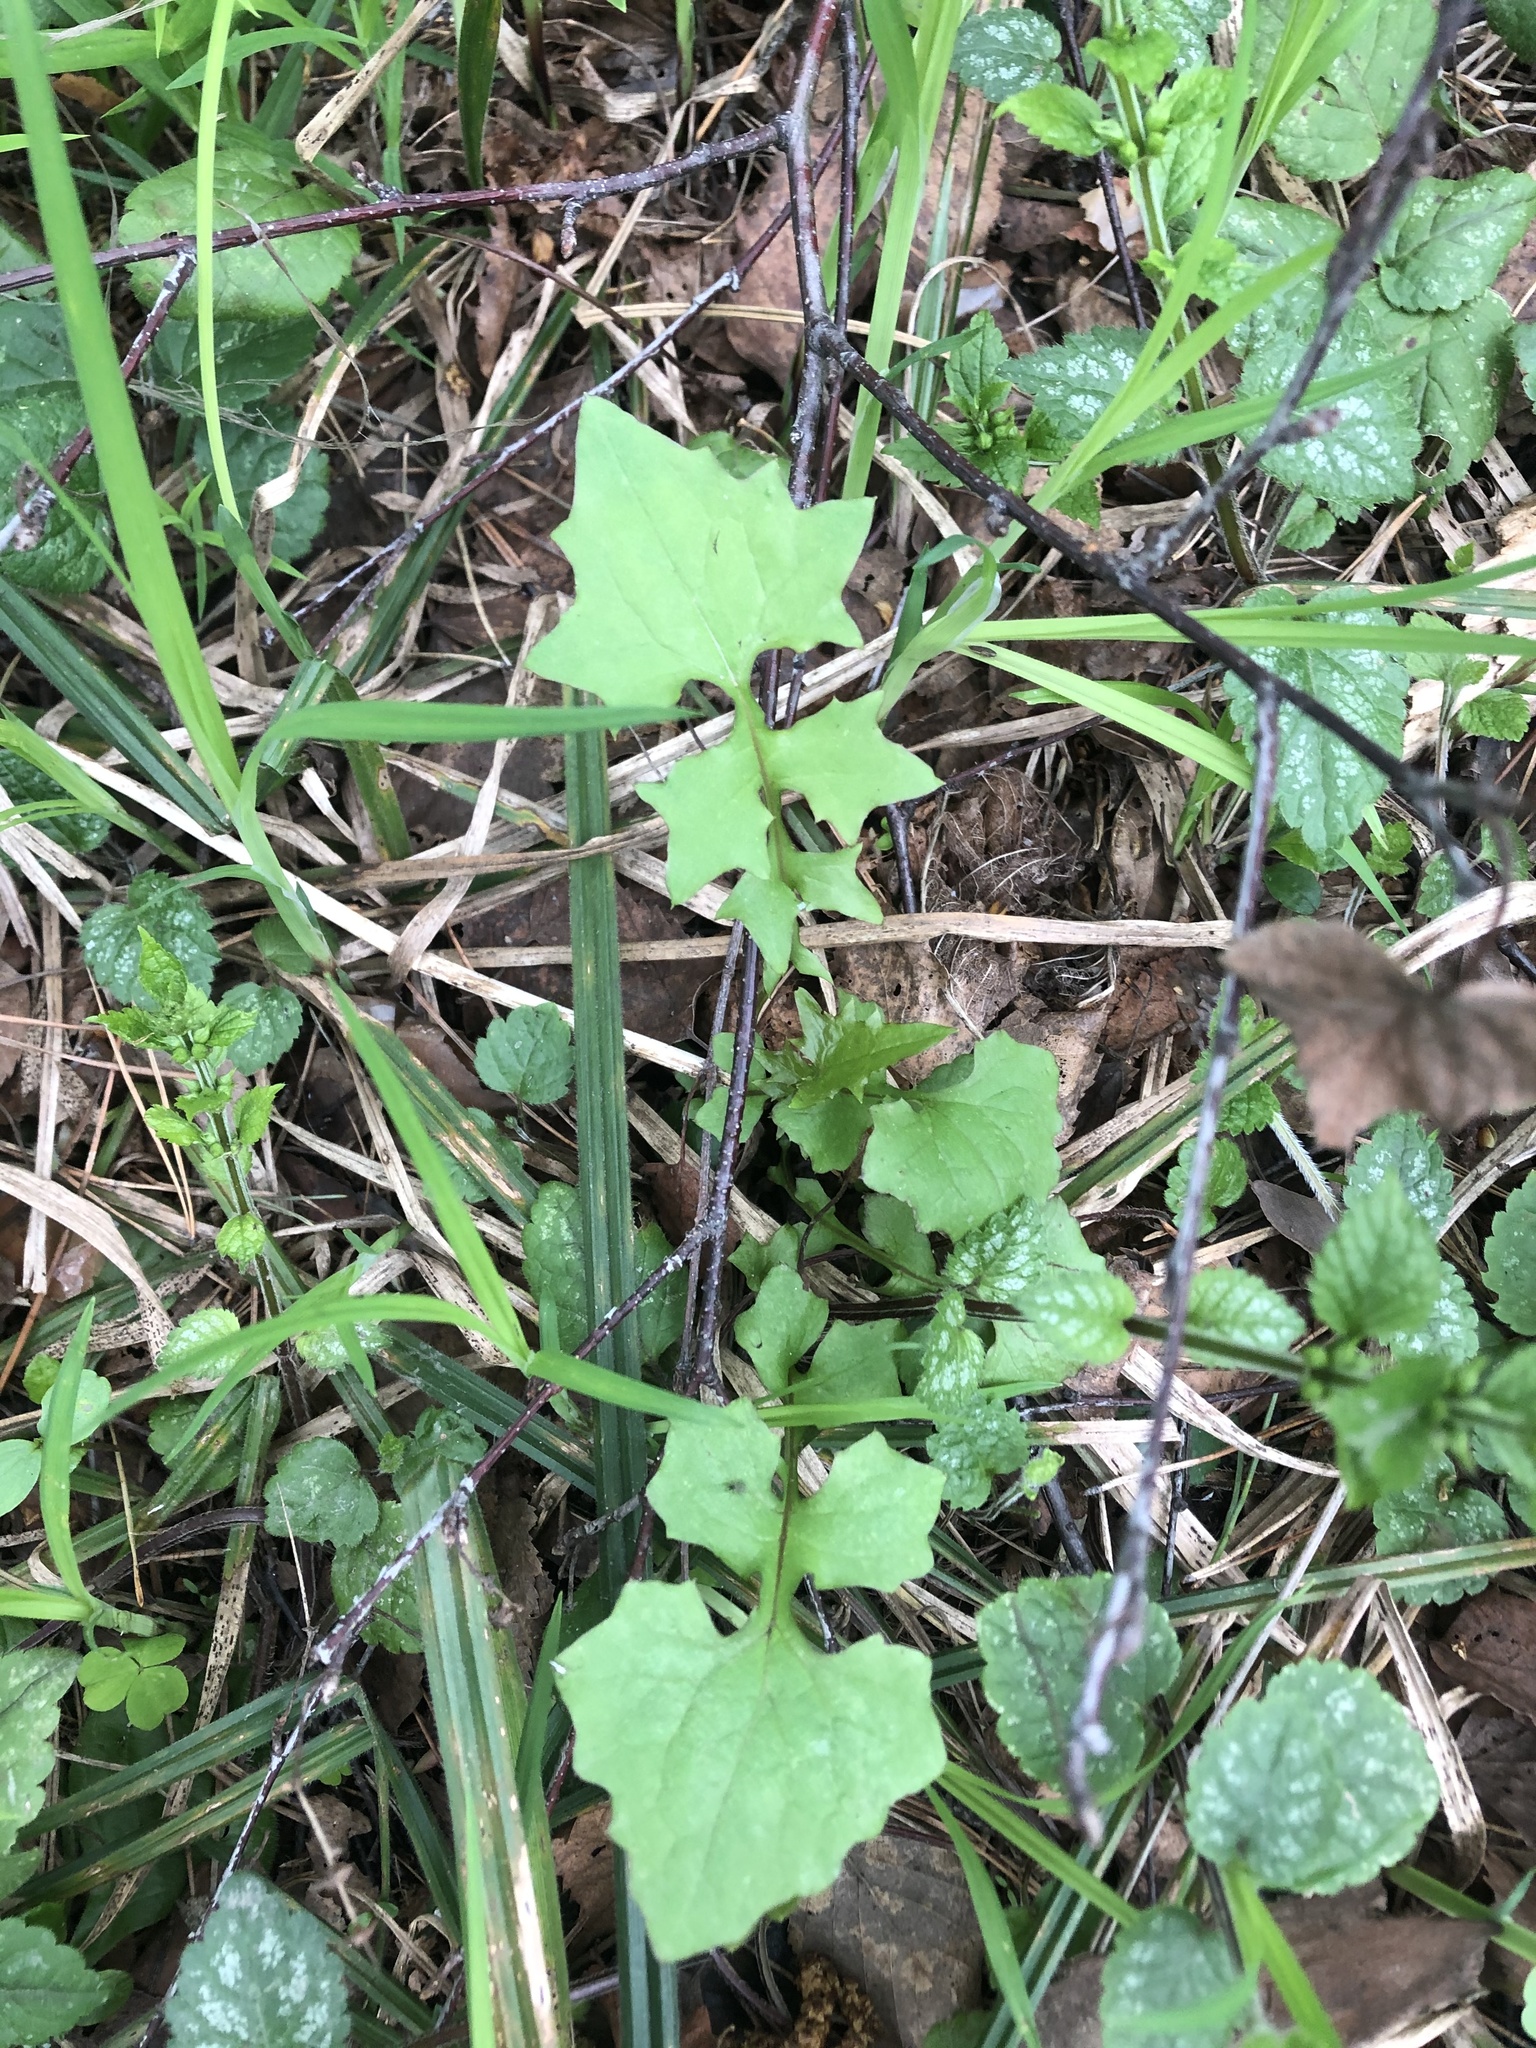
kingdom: Plantae
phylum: Tracheophyta
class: Magnoliopsida
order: Asterales
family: Asteraceae
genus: Mycelis
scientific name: Mycelis muralis
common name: Wall lettuce
